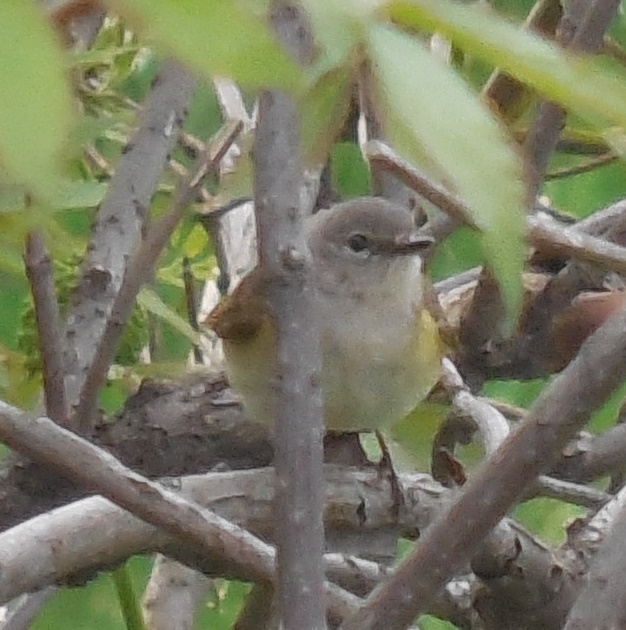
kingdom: Animalia
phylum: Chordata
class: Aves
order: Passeriformes
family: Parulidae
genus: Setophaga
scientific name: Setophaga ruticilla
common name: American redstart
